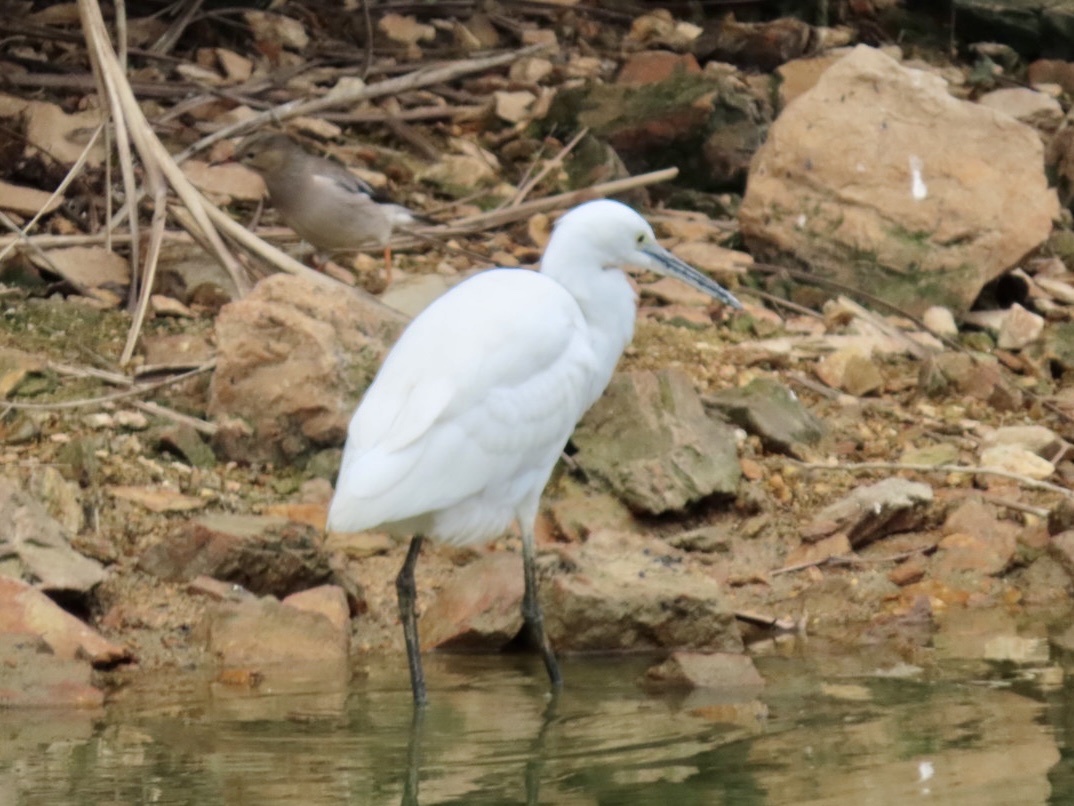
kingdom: Animalia
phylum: Chordata
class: Aves
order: Pelecaniformes
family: Ardeidae
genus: Egretta
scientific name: Egretta garzetta
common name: Little egret
